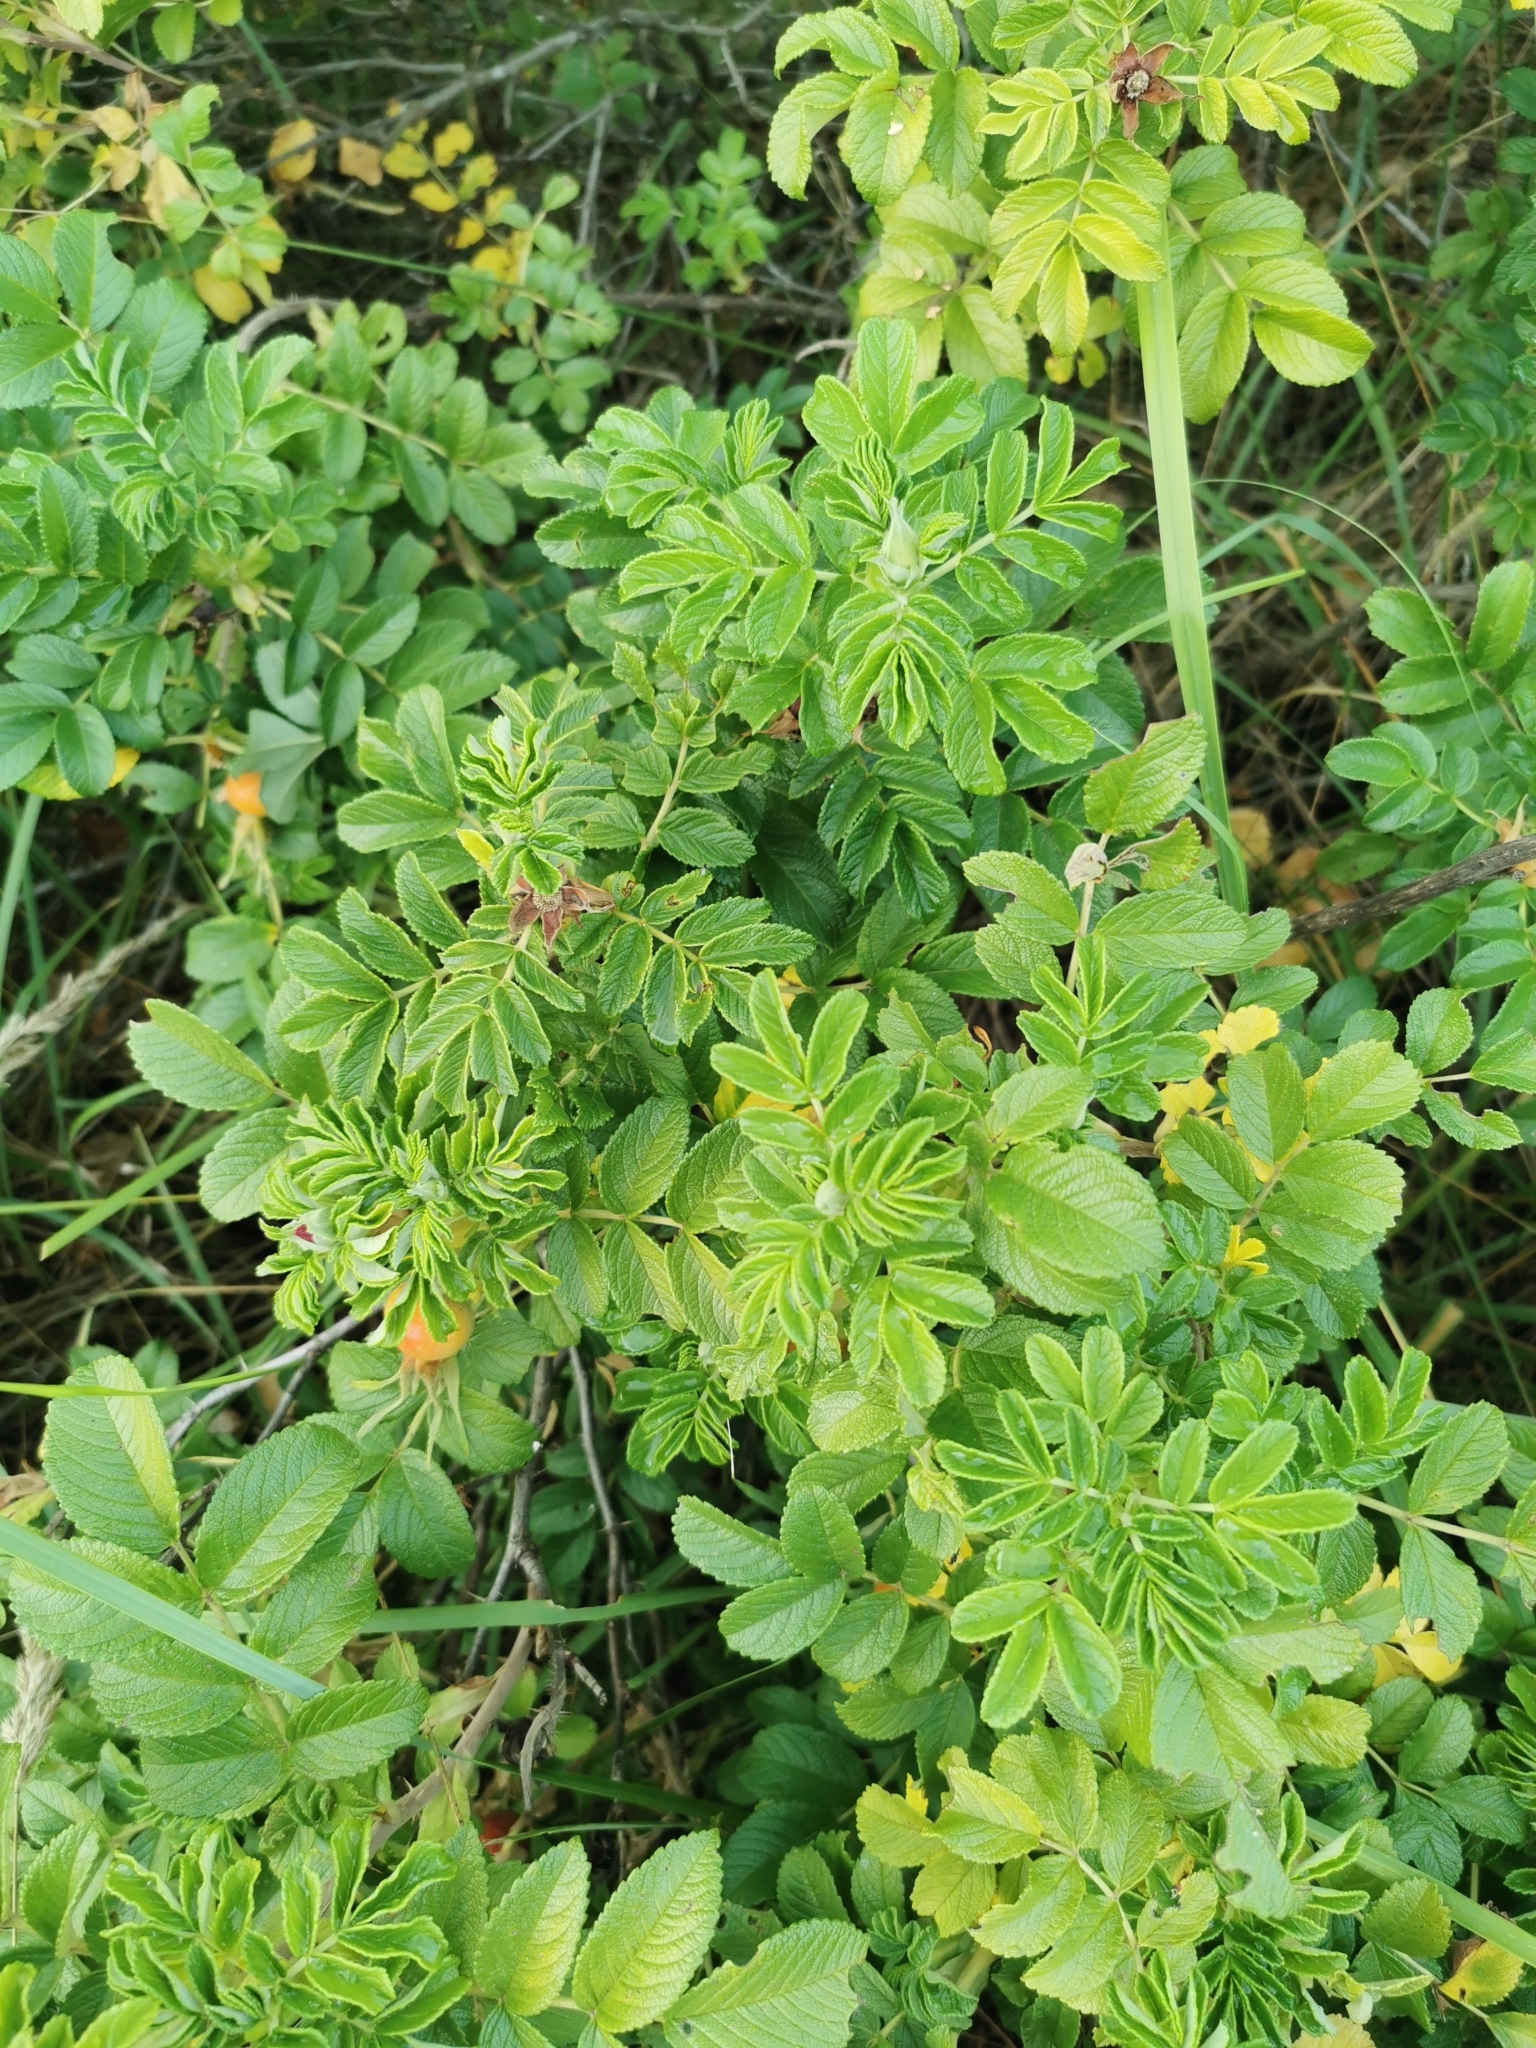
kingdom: Plantae
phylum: Tracheophyta
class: Magnoliopsida
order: Rosales
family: Rosaceae
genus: Rosa
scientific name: Rosa rugosa
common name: Japanese rose
